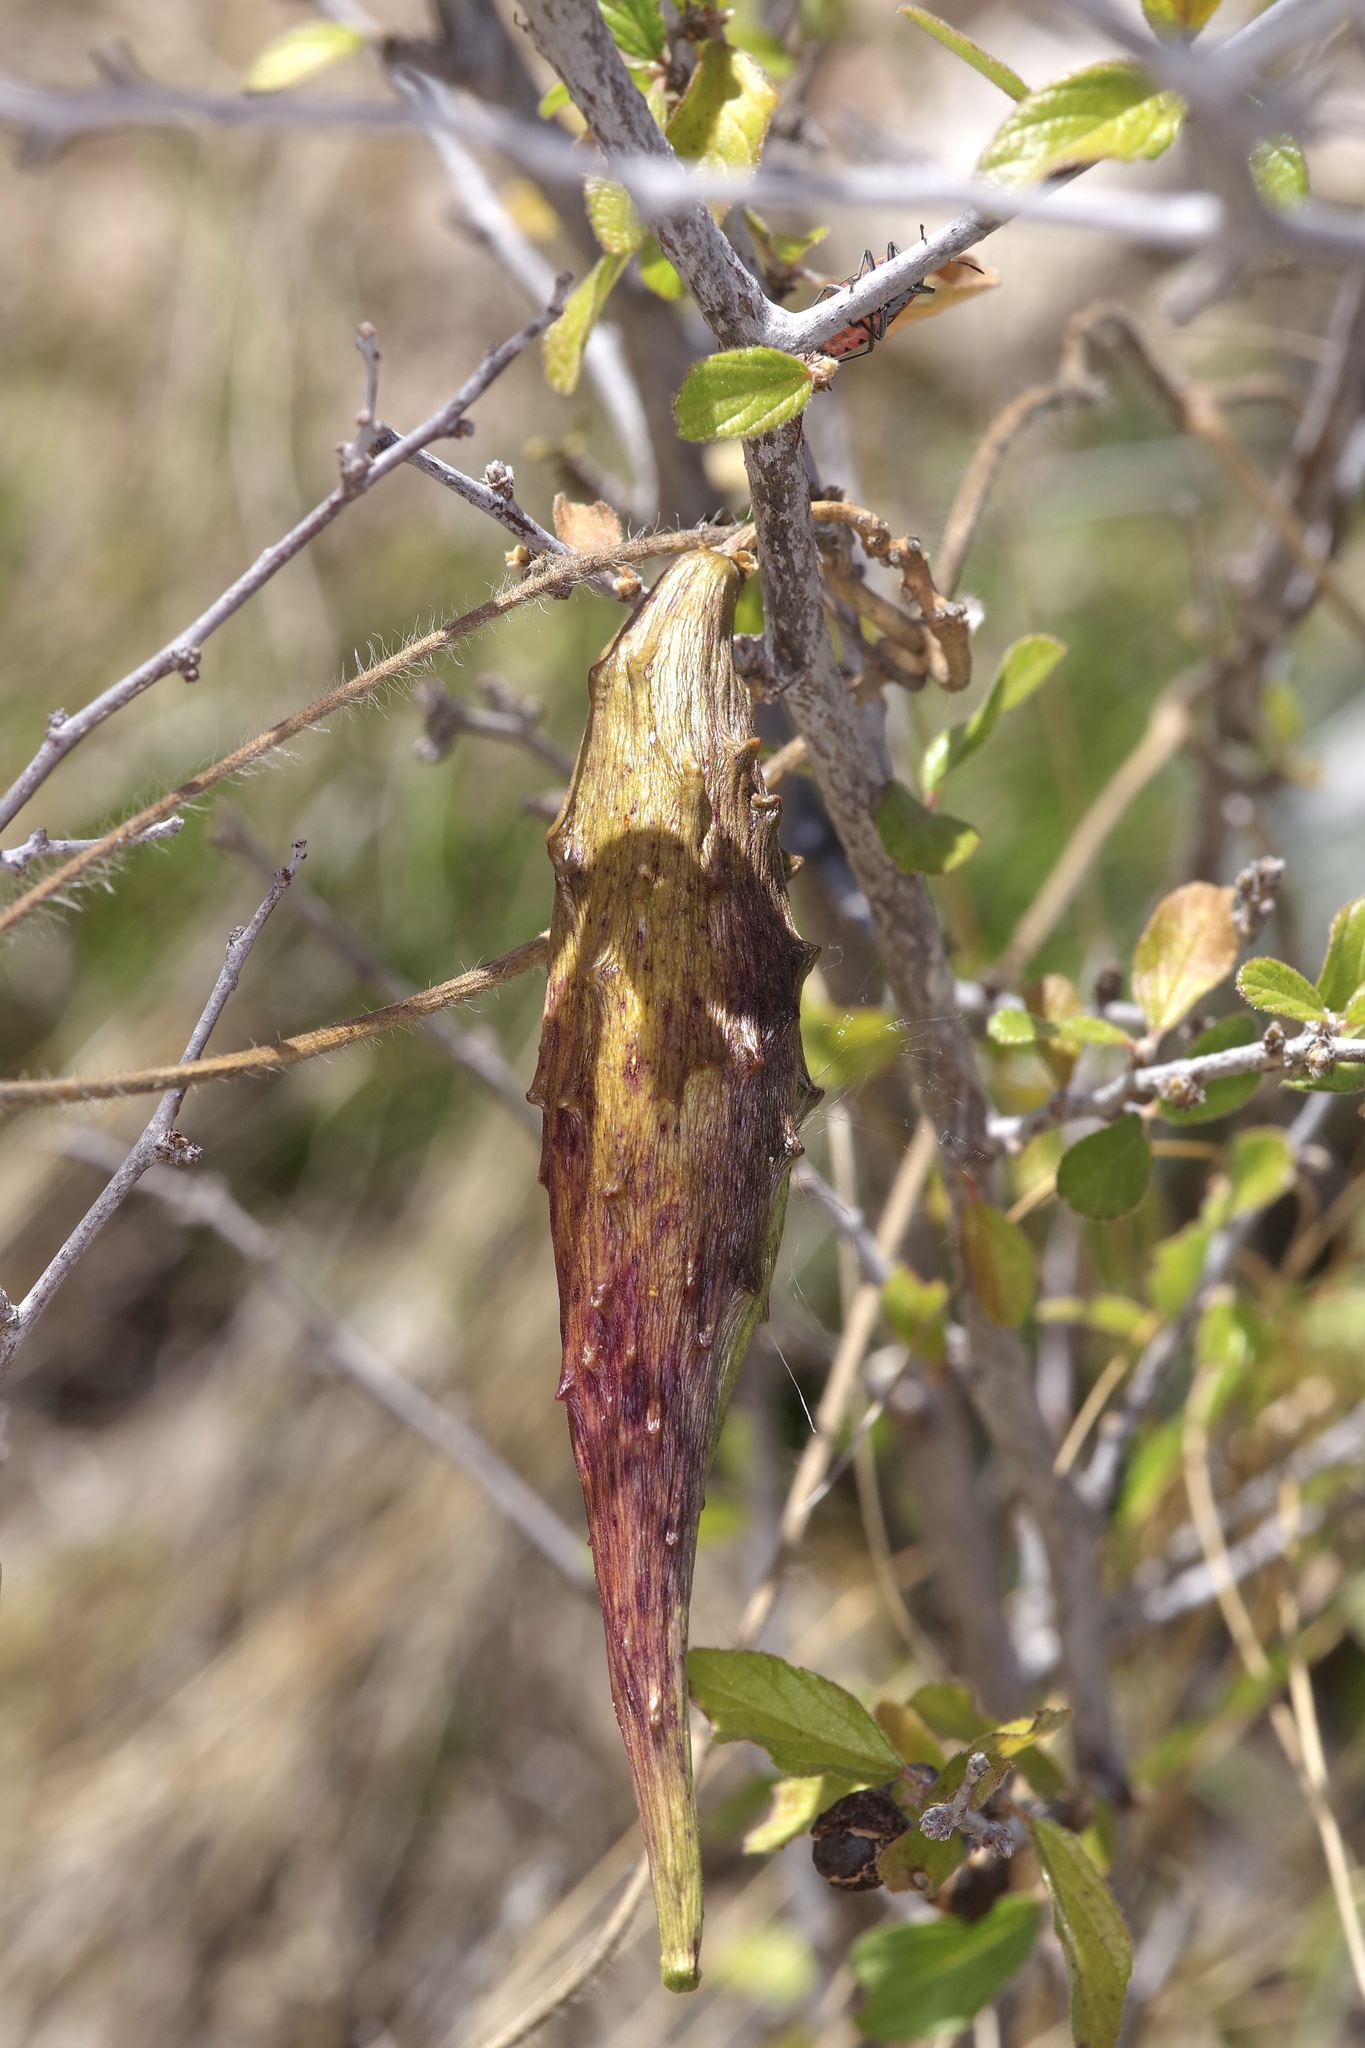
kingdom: Plantae
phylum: Tracheophyta
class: Magnoliopsida
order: Gentianales
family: Apocynaceae
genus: Dictyanthus
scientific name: Dictyanthus reticulatus
